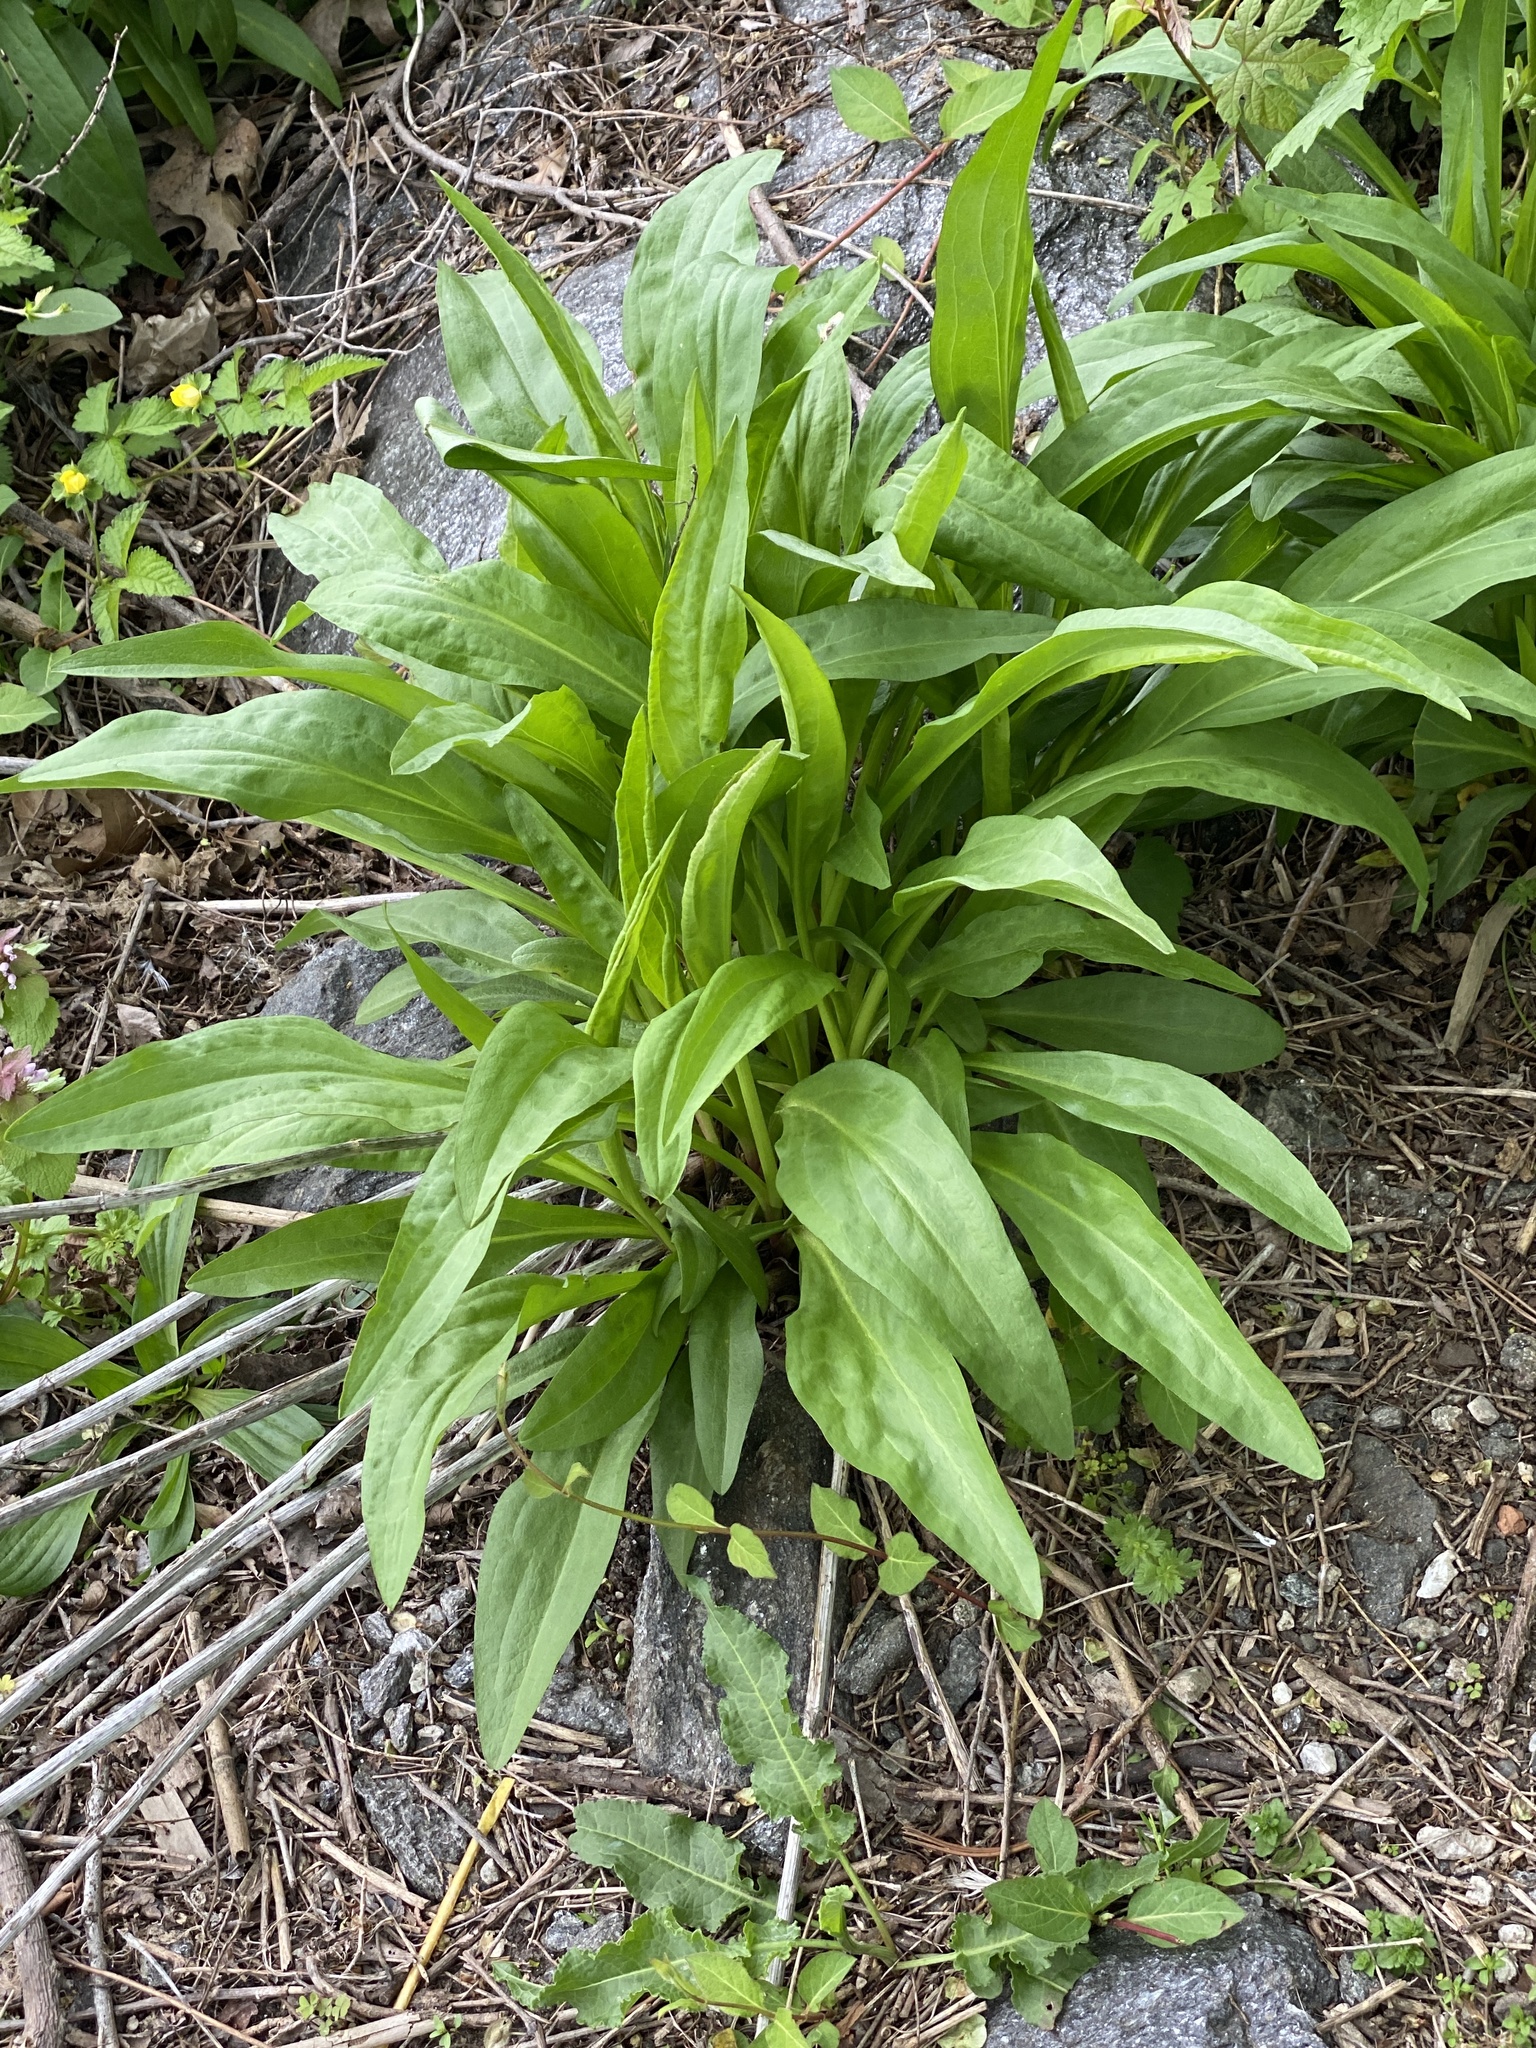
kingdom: Plantae
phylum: Tracheophyta
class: Magnoliopsida
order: Asterales
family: Asteraceae
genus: Solidago
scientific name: Solidago sempervirens
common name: Salt-marsh goldenrod
